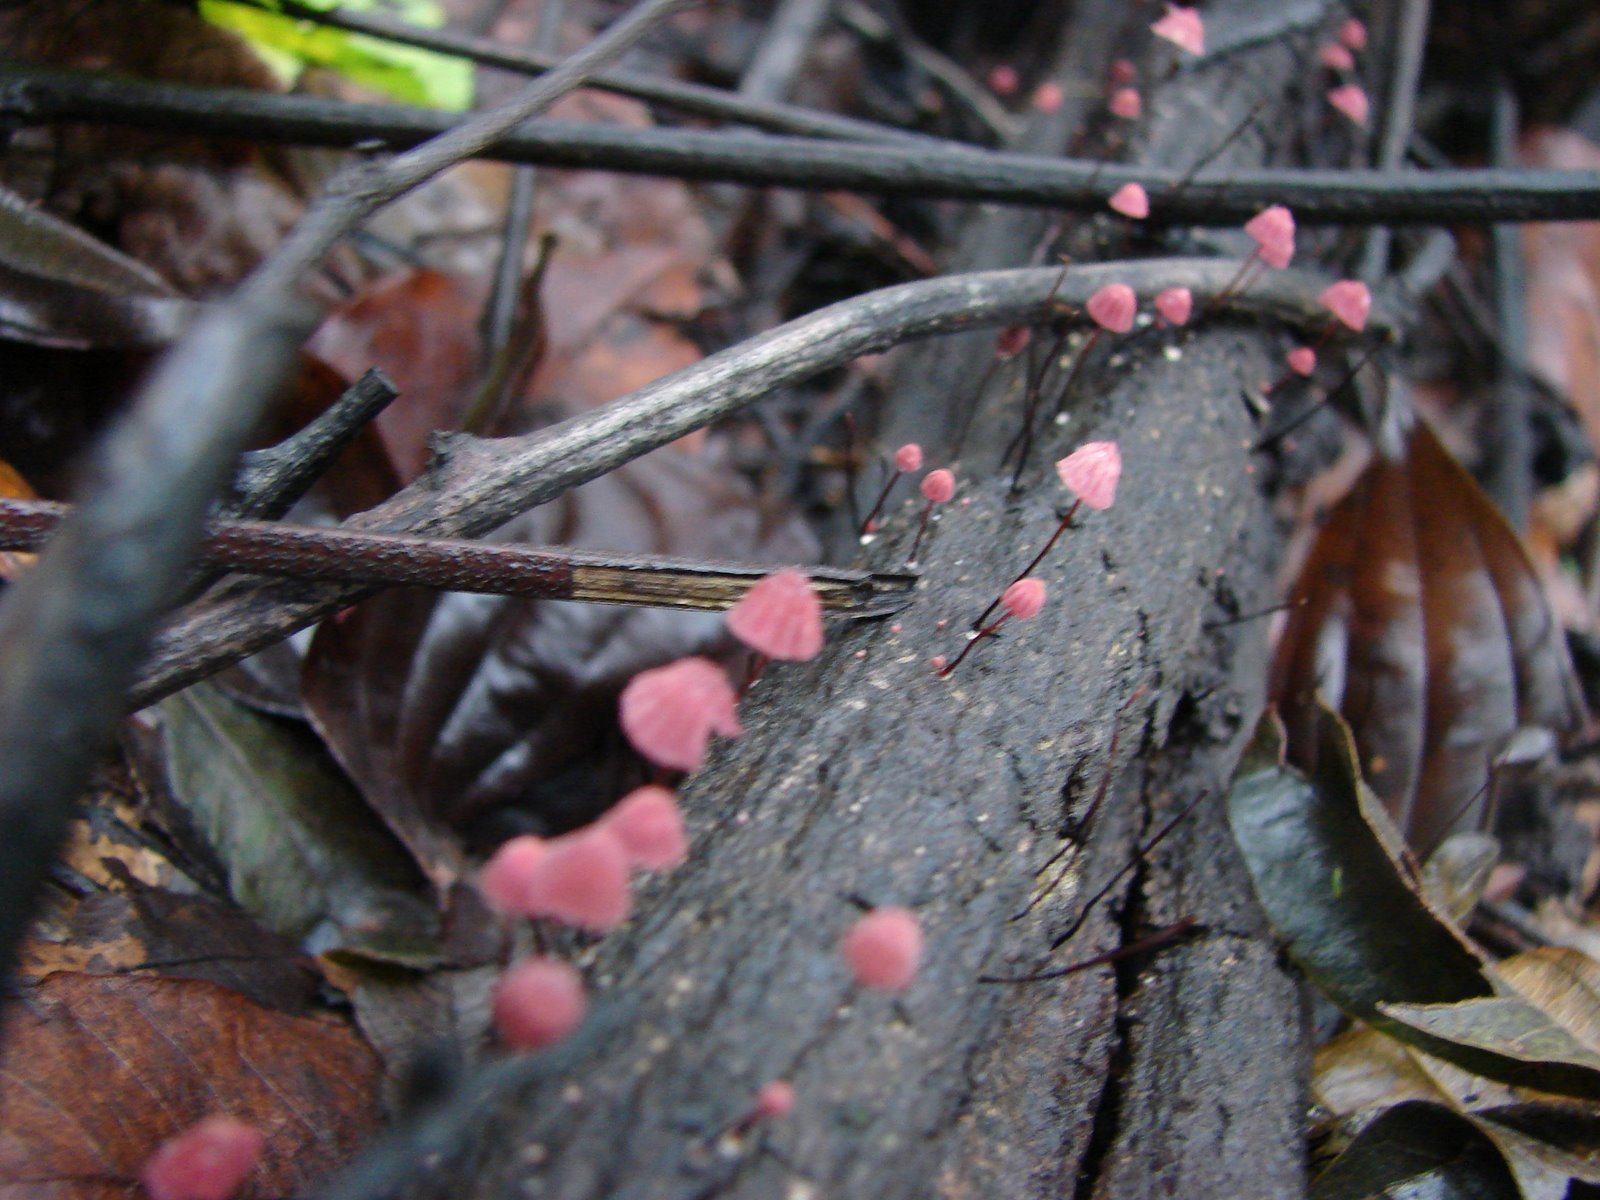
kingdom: Fungi
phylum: Basidiomycota
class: Agaricomycetes
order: Agaricales
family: Marasmiaceae
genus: Marasmius
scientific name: Marasmius haematocephalus
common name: Purple pinwheel
